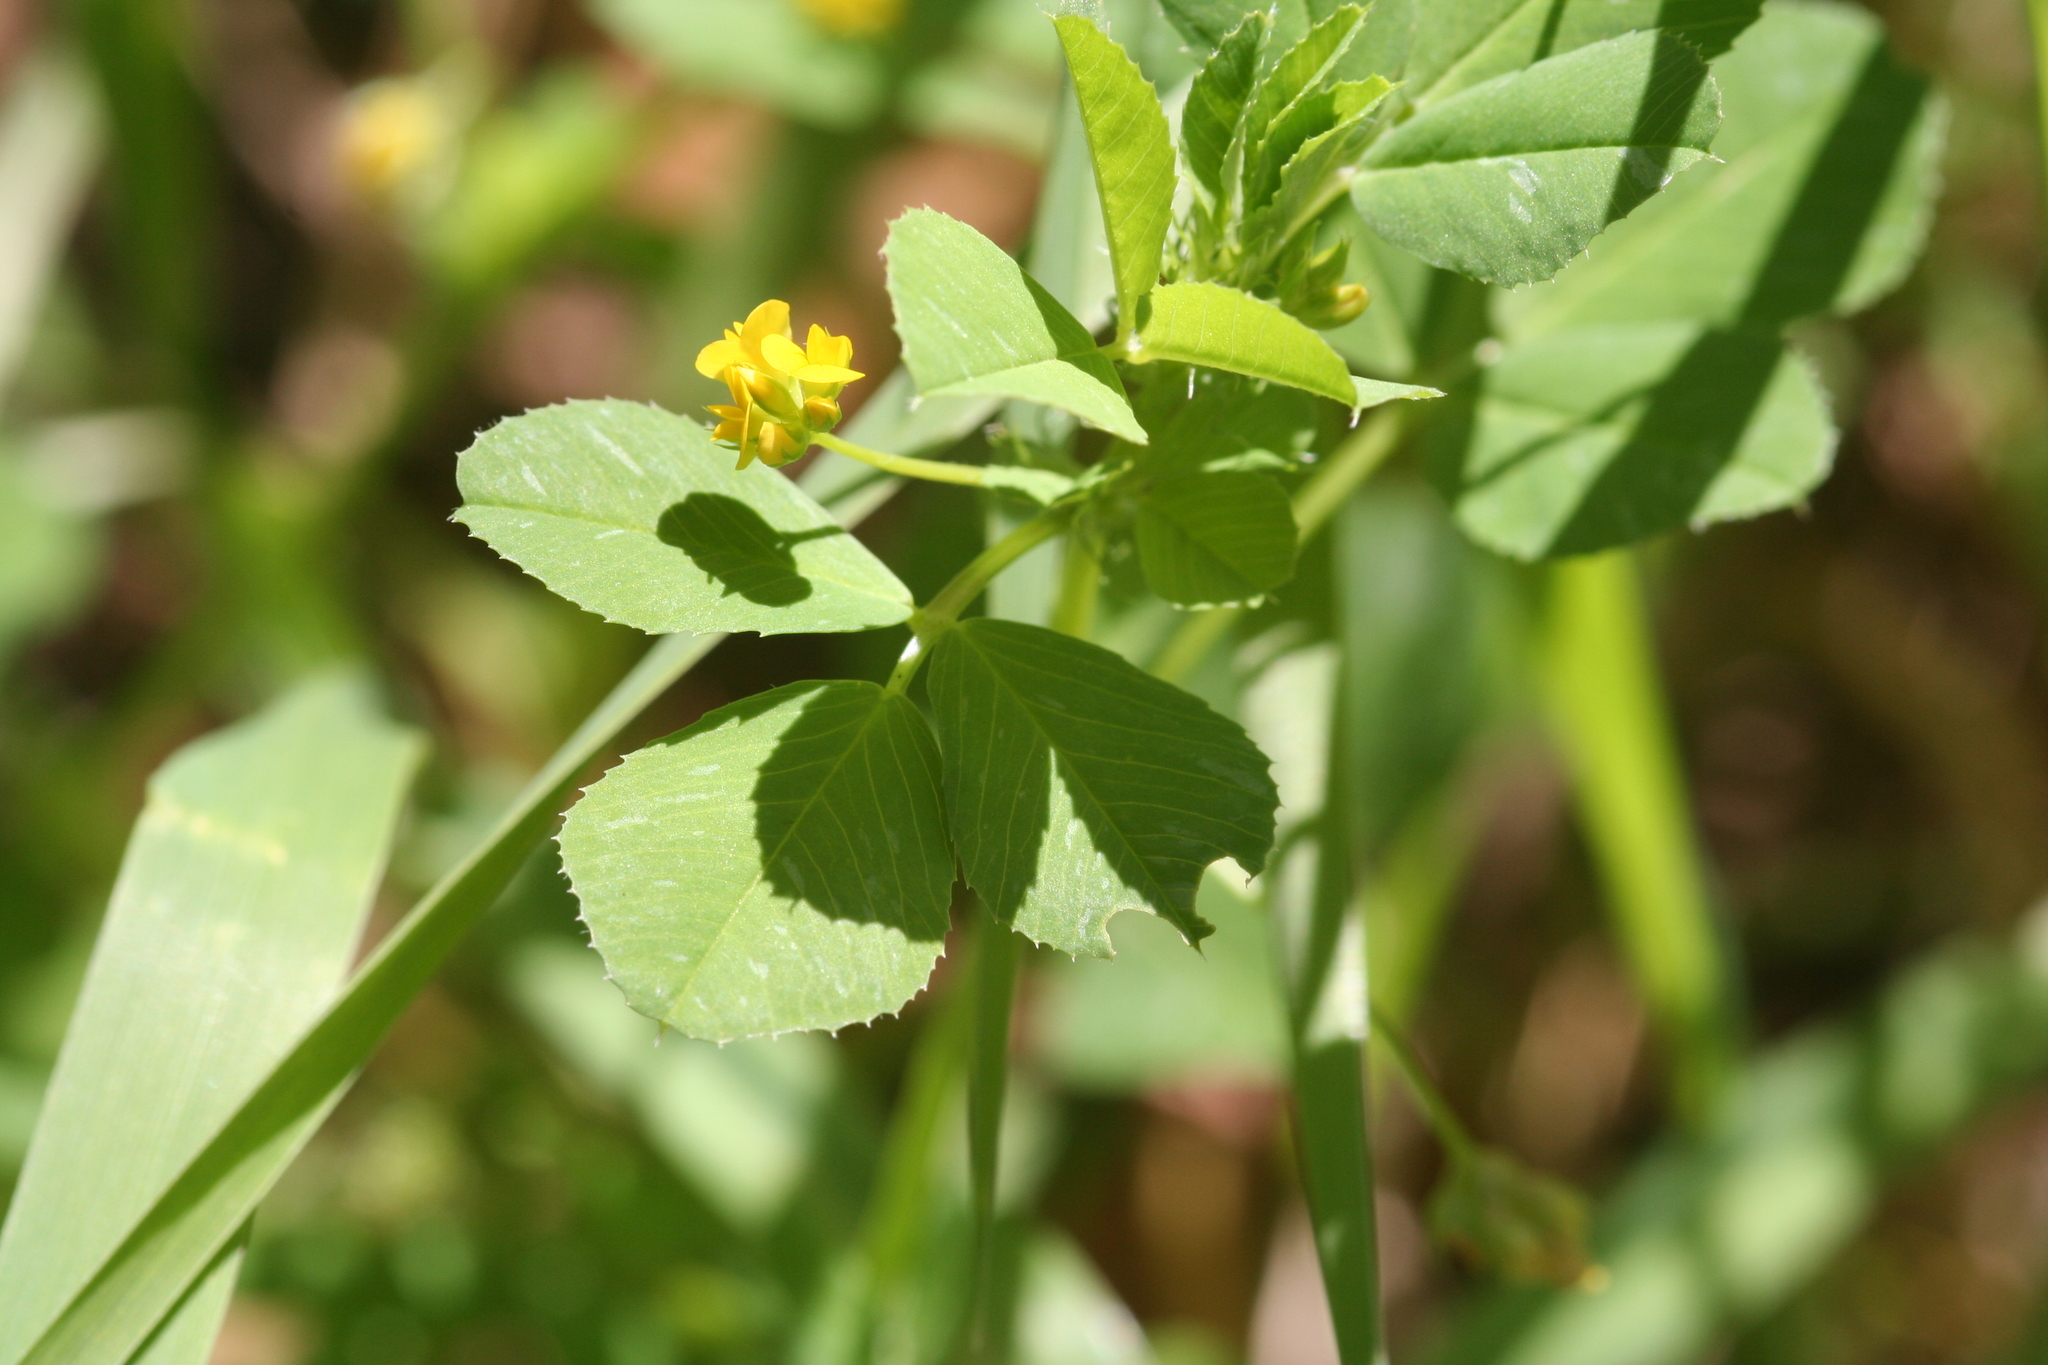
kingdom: Plantae
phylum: Tracheophyta
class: Magnoliopsida
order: Fabales
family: Fabaceae
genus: Medicago
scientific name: Medicago polymorpha
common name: Burclover
